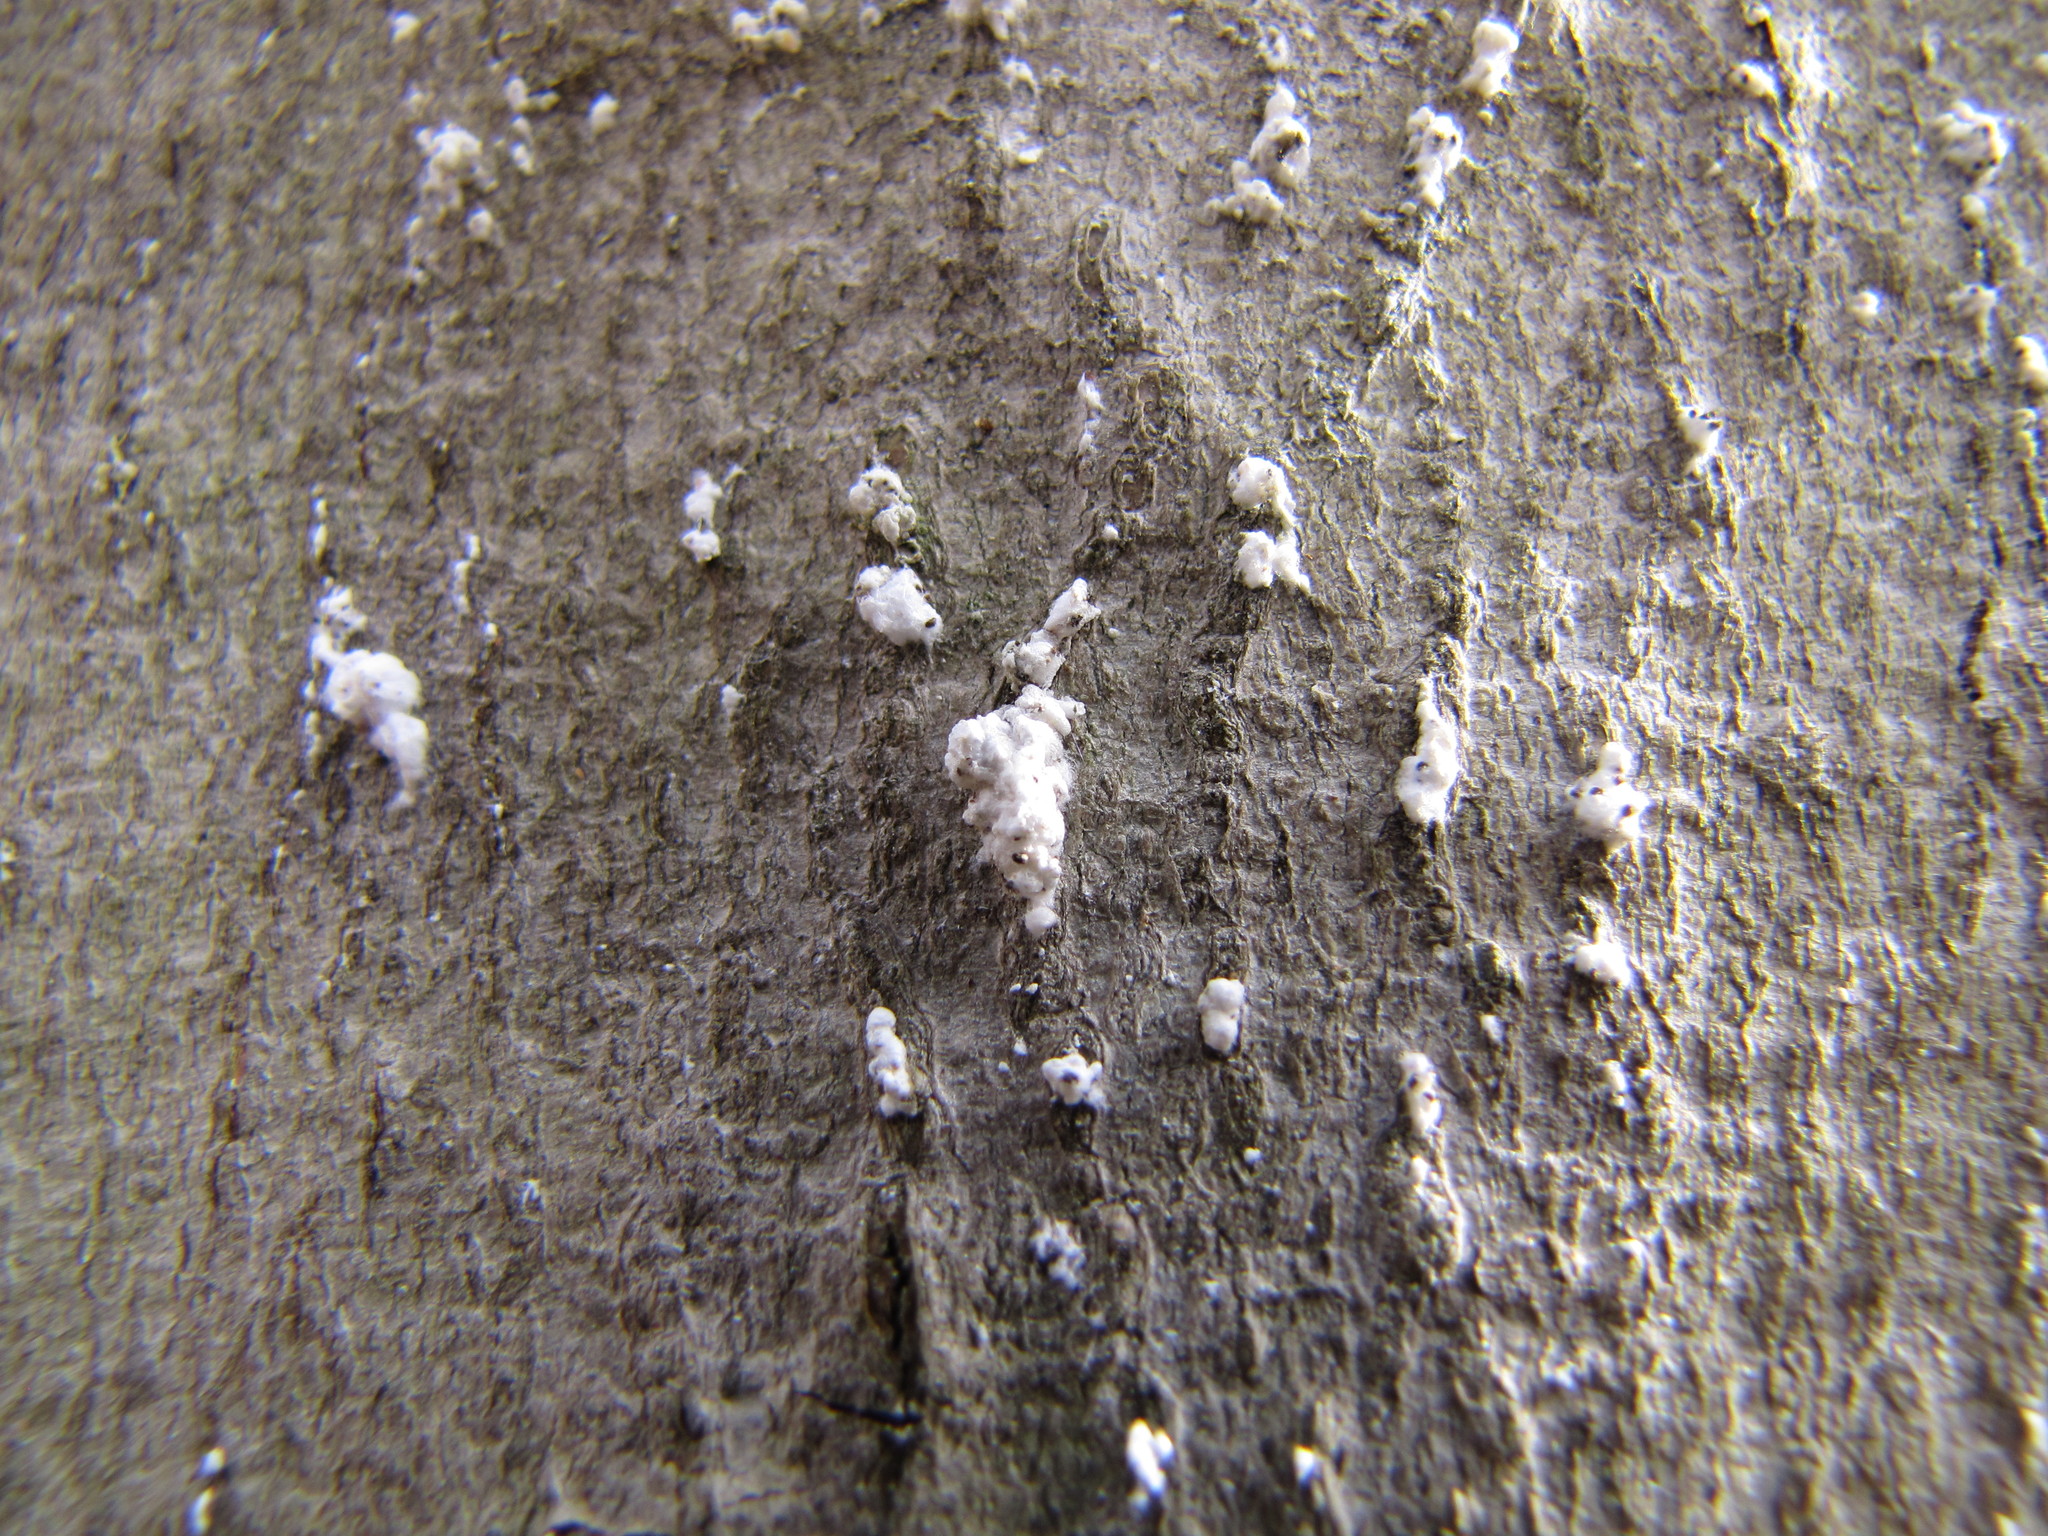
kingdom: Animalia
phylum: Arthropoda
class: Insecta
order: Hemiptera
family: Eriococcidae
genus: Cryptococcus
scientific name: Cryptococcus fagisuga
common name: Beech scale
